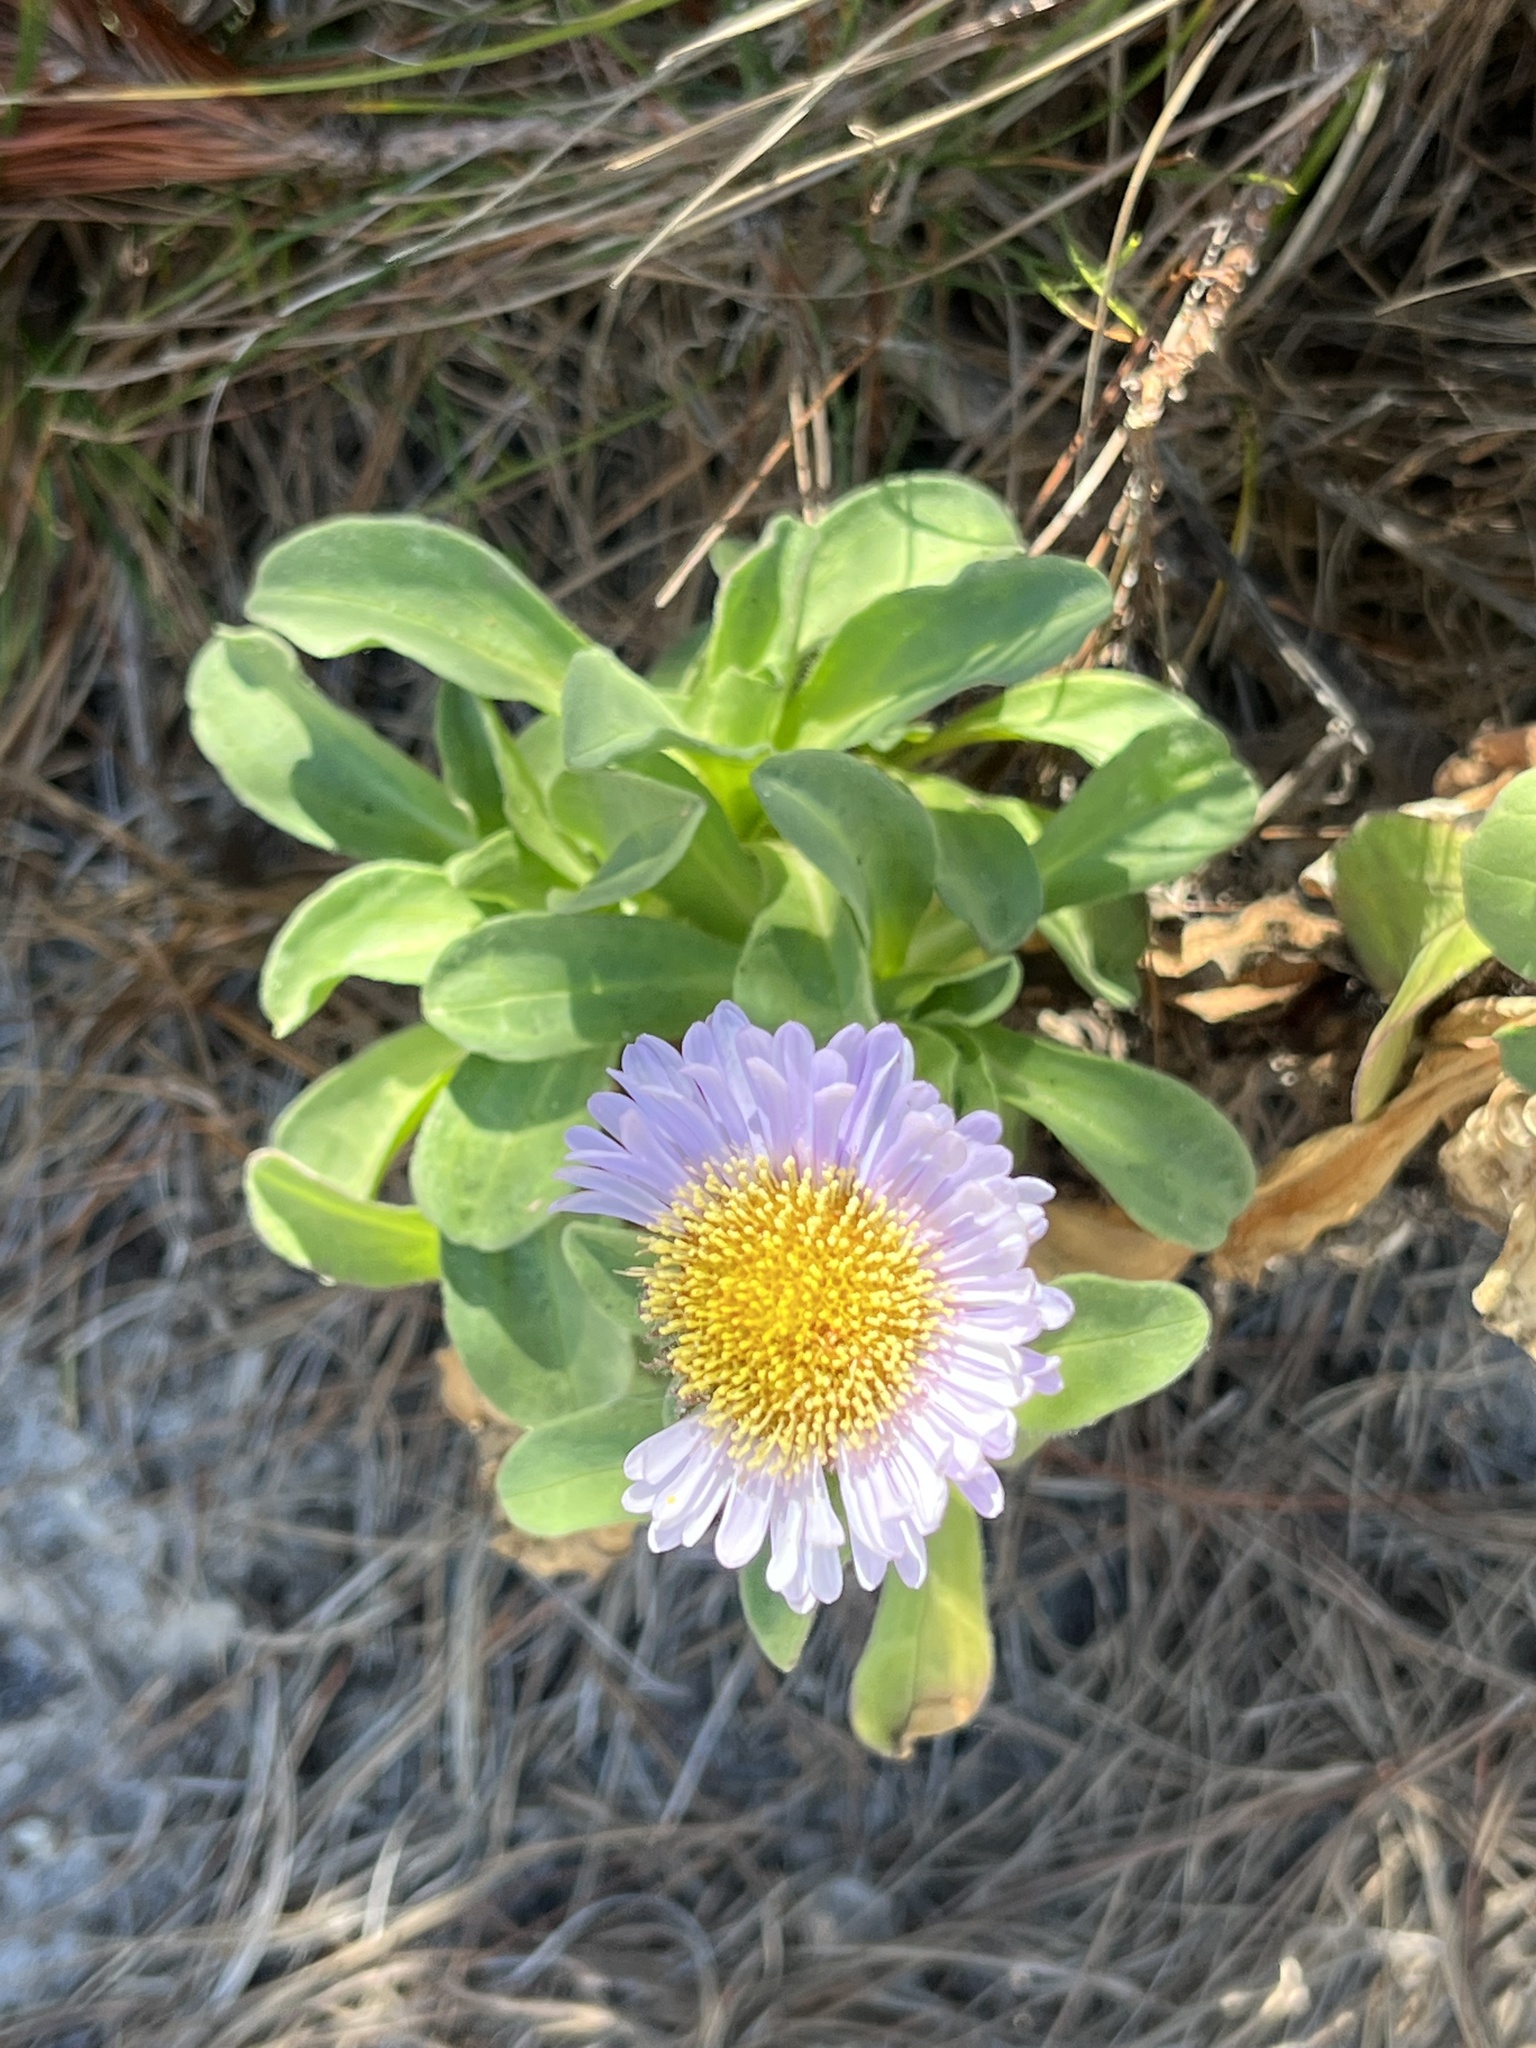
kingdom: Plantae
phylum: Tracheophyta
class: Magnoliopsida
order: Asterales
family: Asteraceae
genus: Erigeron
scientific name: Erigeron glaucus
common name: Seaside daisy
